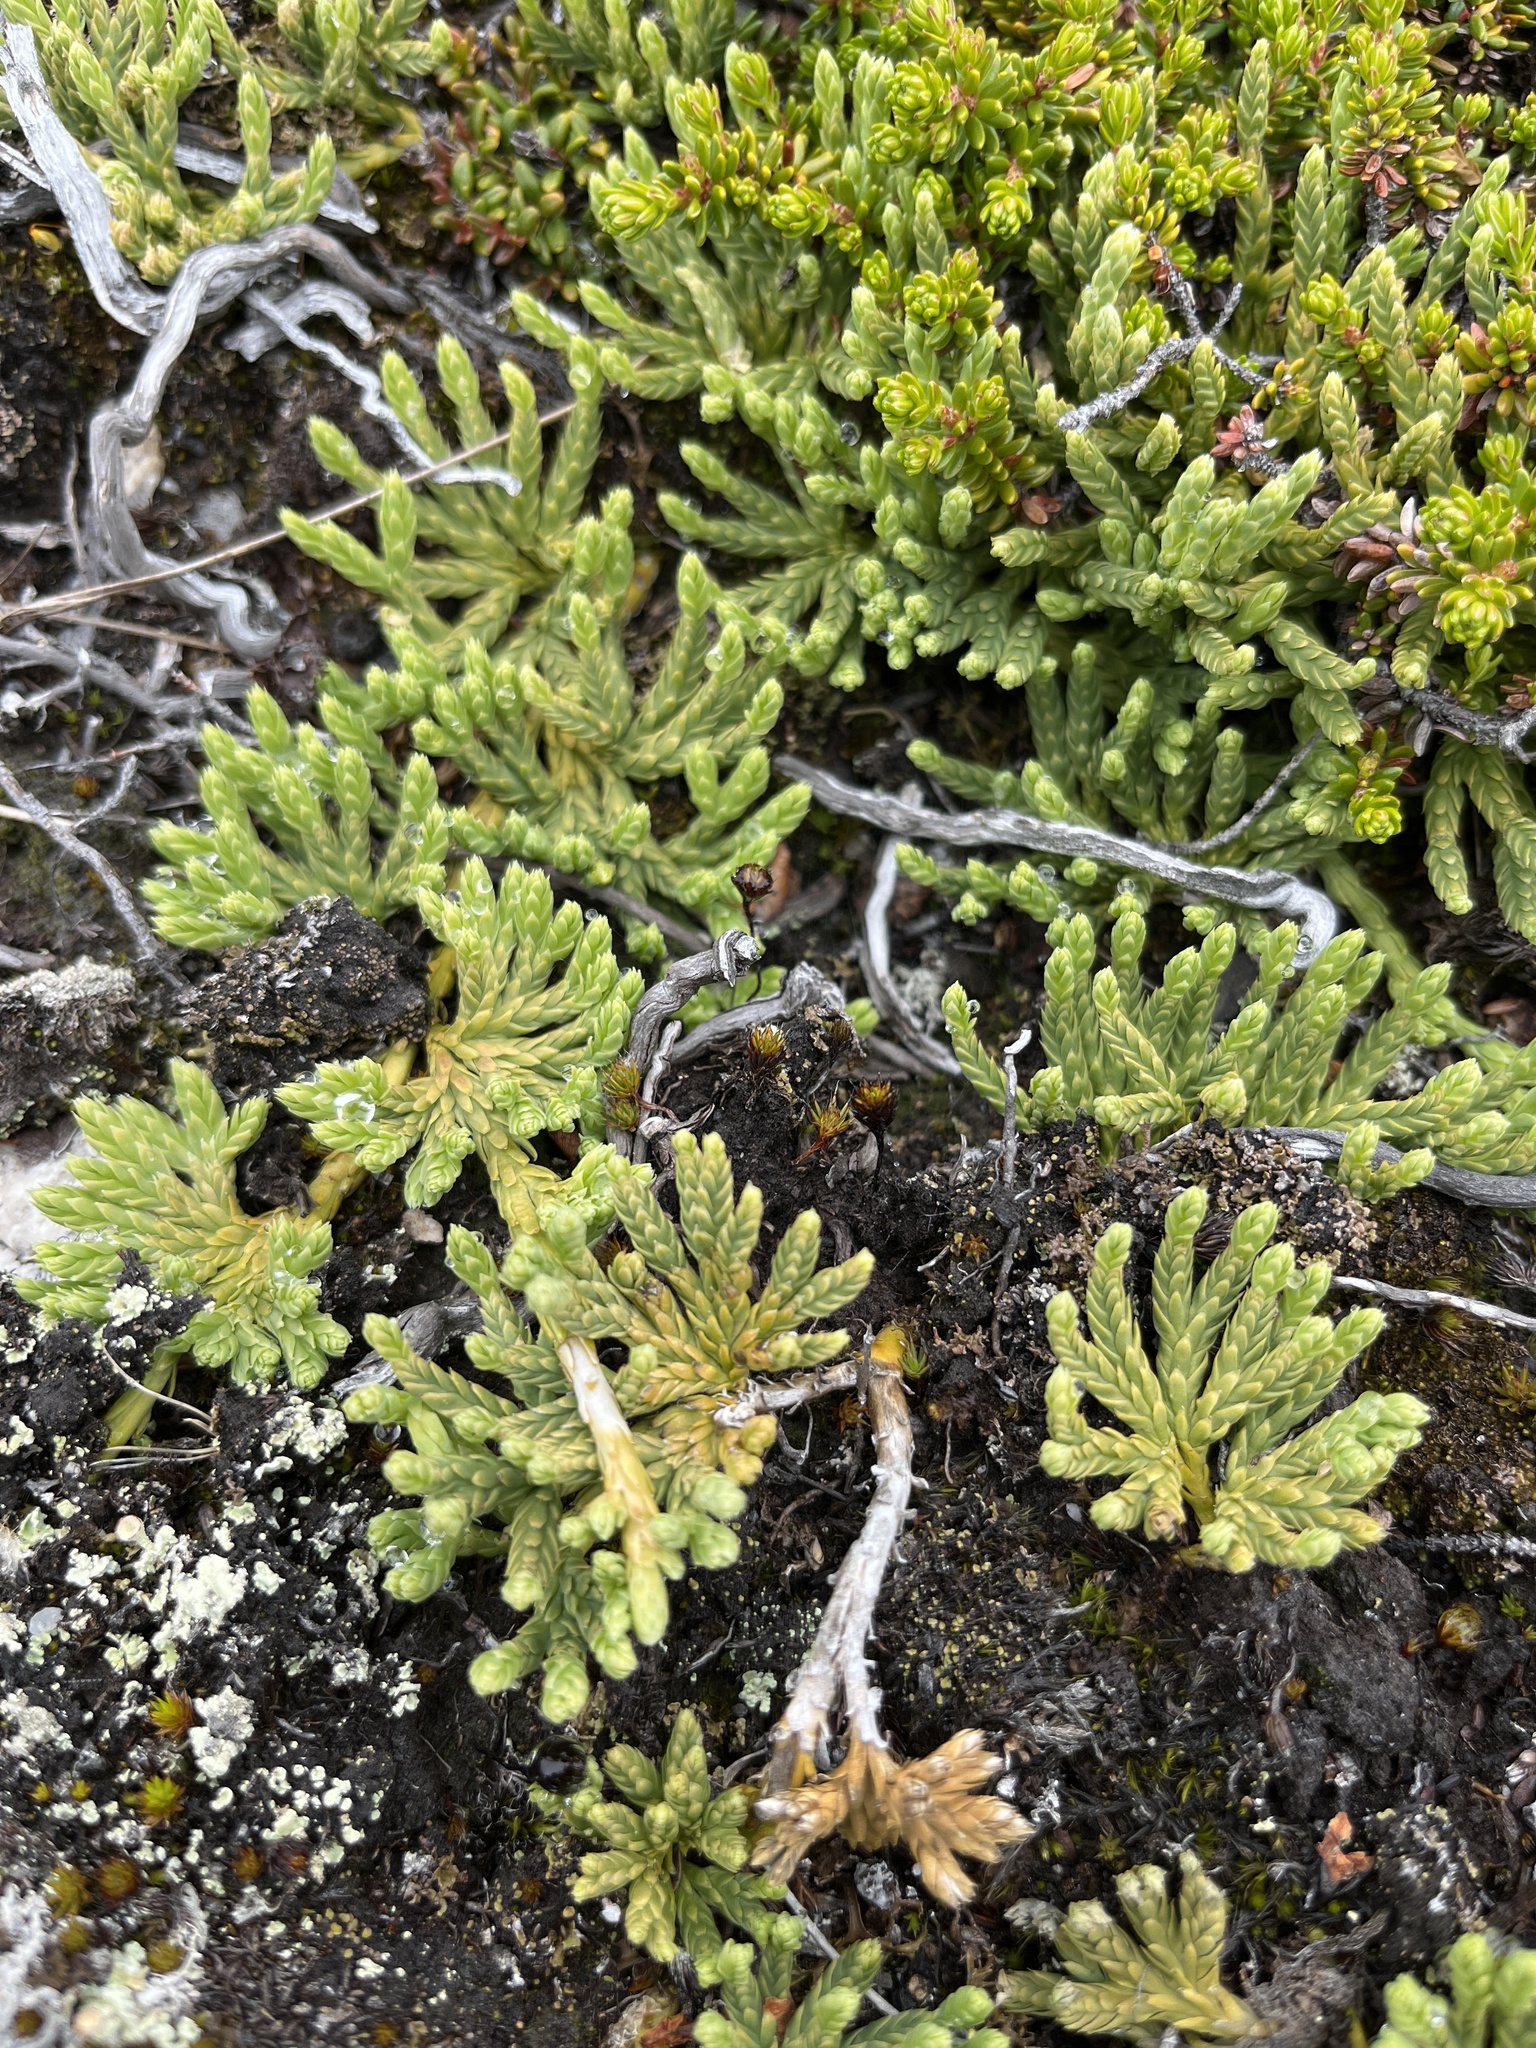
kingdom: Plantae
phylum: Tracheophyta
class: Lycopodiopsida
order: Lycopodiales
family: Lycopodiaceae
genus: Diphasiastrum
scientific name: Diphasiastrum alpinum
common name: Alpine clubmoss
